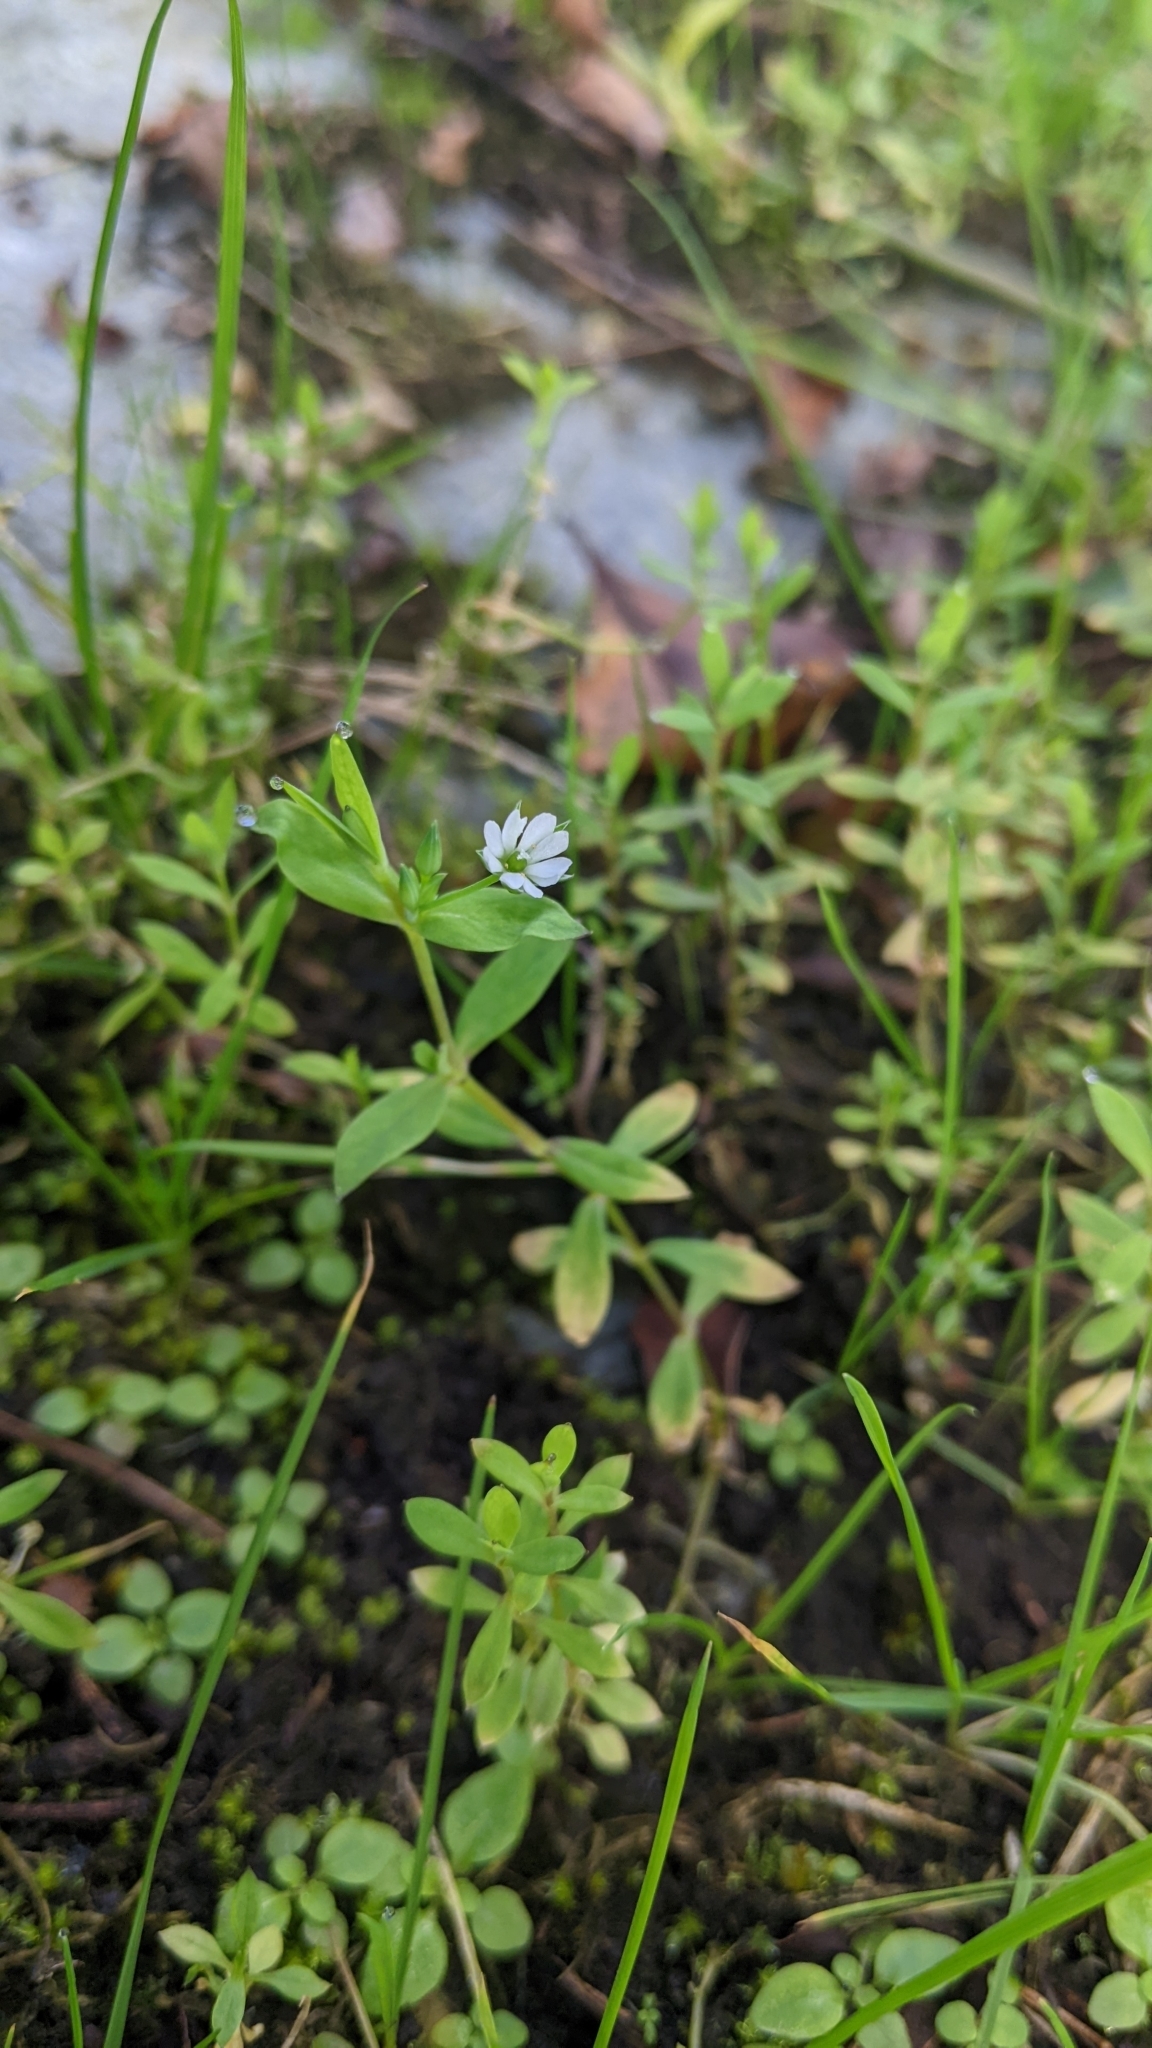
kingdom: Plantae
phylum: Tracheophyta
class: Magnoliopsida
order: Caryophyllales
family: Caryophyllaceae
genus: Stellaria
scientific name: Stellaria alsine
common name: Bog stitchwort
